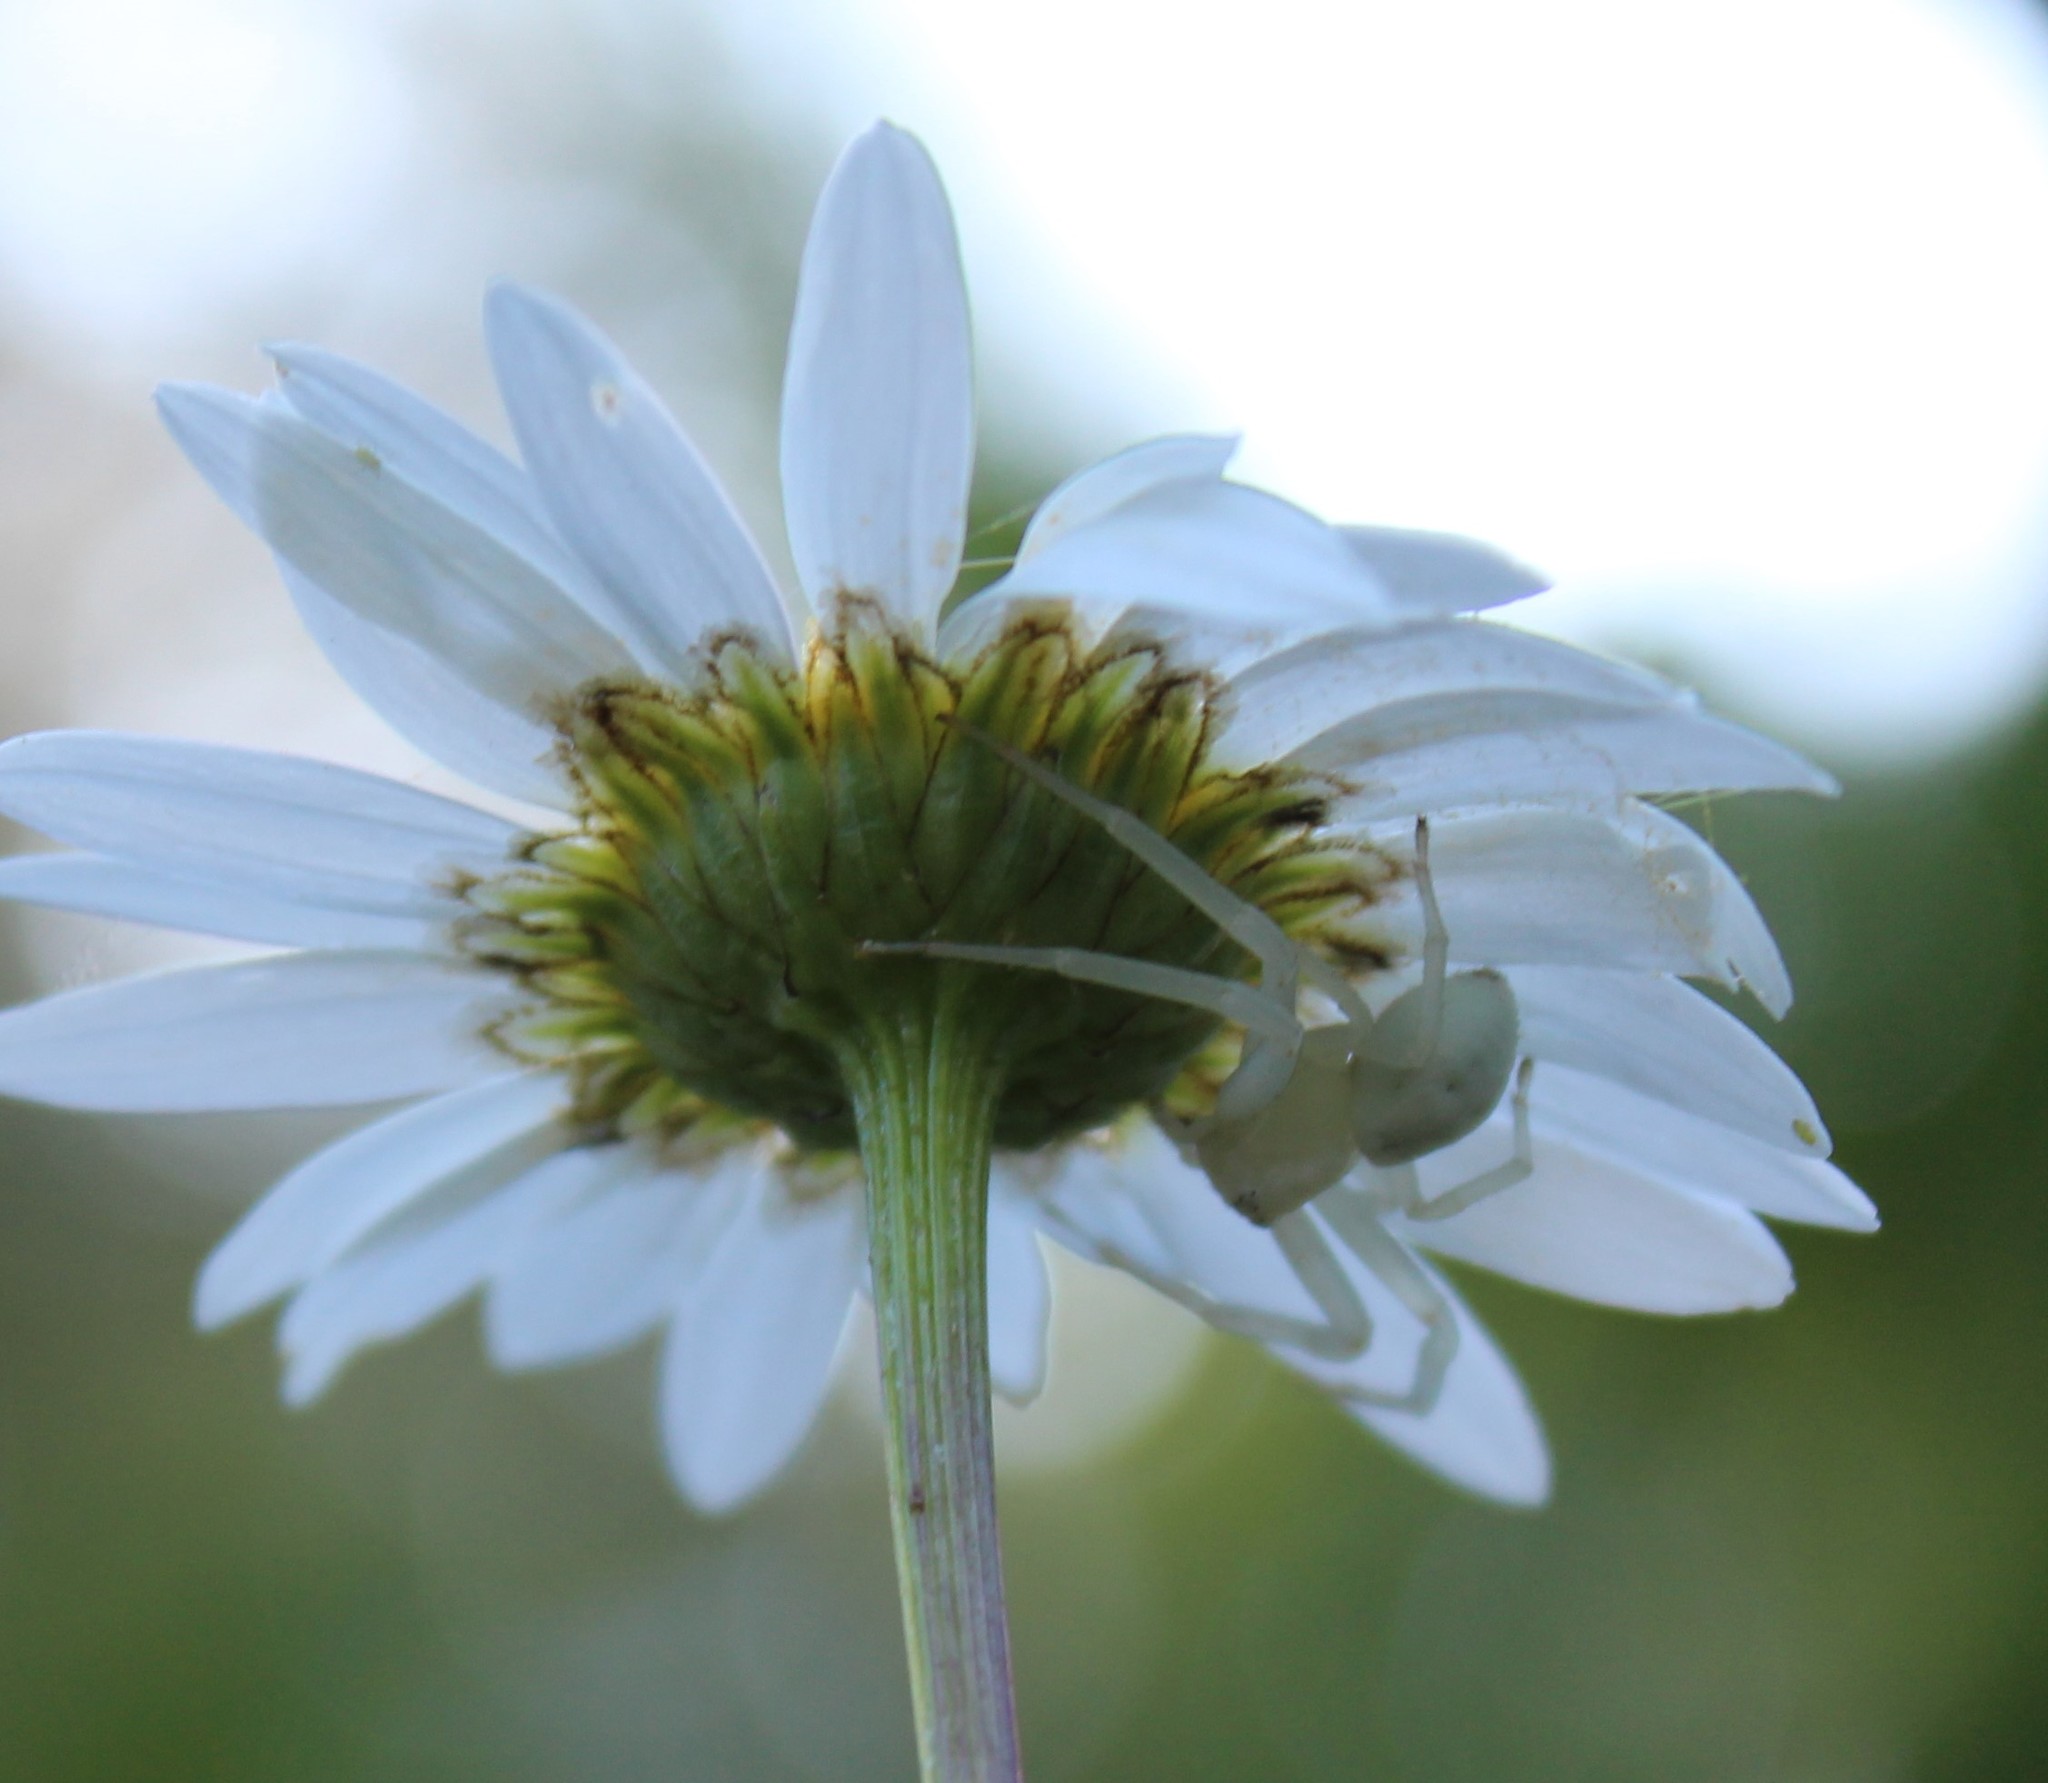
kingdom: Animalia
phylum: Arthropoda
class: Arachnida
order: Araneae
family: Thomisidae
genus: Misumena
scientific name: Misumena vatia
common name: Goldenrod crab spider
